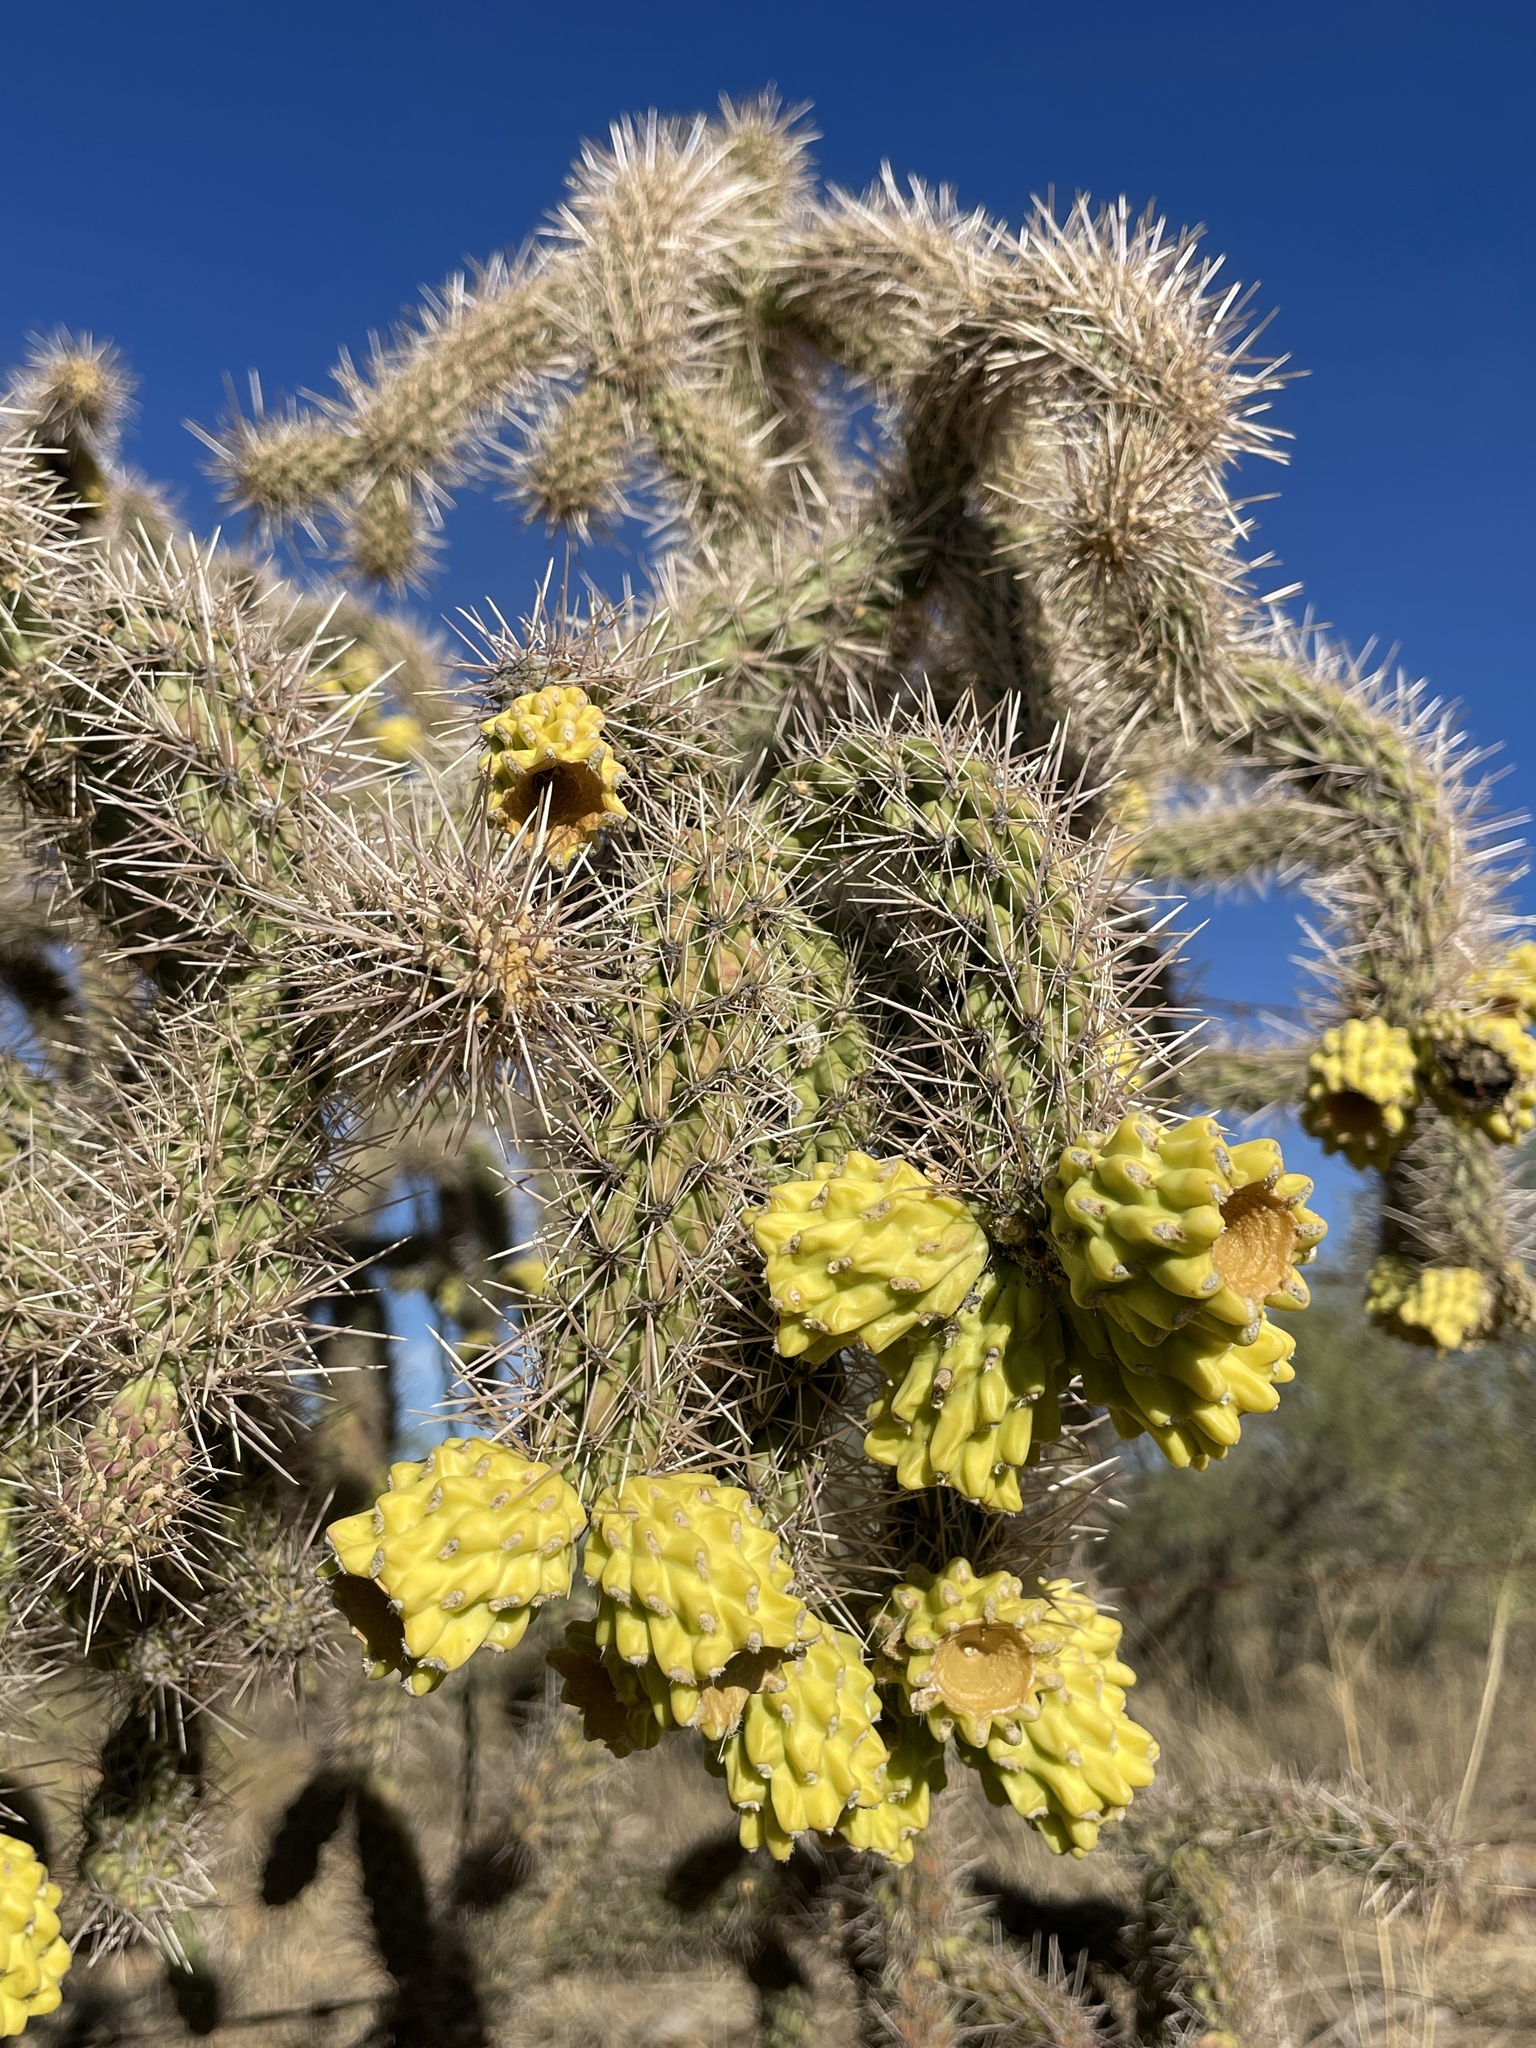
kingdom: Plantae
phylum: Tracheophyta
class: Magnoliopsida
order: Caryophyllales
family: Cactaceae
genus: Cylindropuntia
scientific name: Cylindropuntia imbricata
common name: Candelabrum cactus
